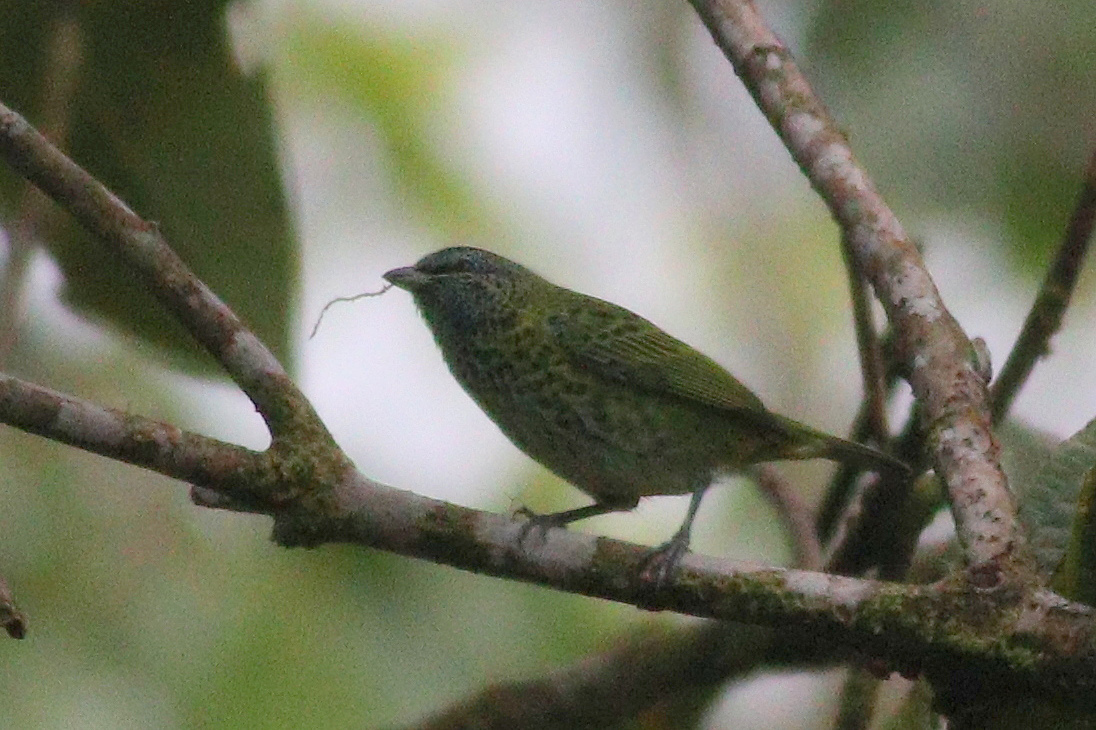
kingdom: Animalia
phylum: Chordata
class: Aves
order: Passeriformes
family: Thraupidae
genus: Ixothraupis
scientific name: Ixothraupis punctata
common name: Spotted tanager
